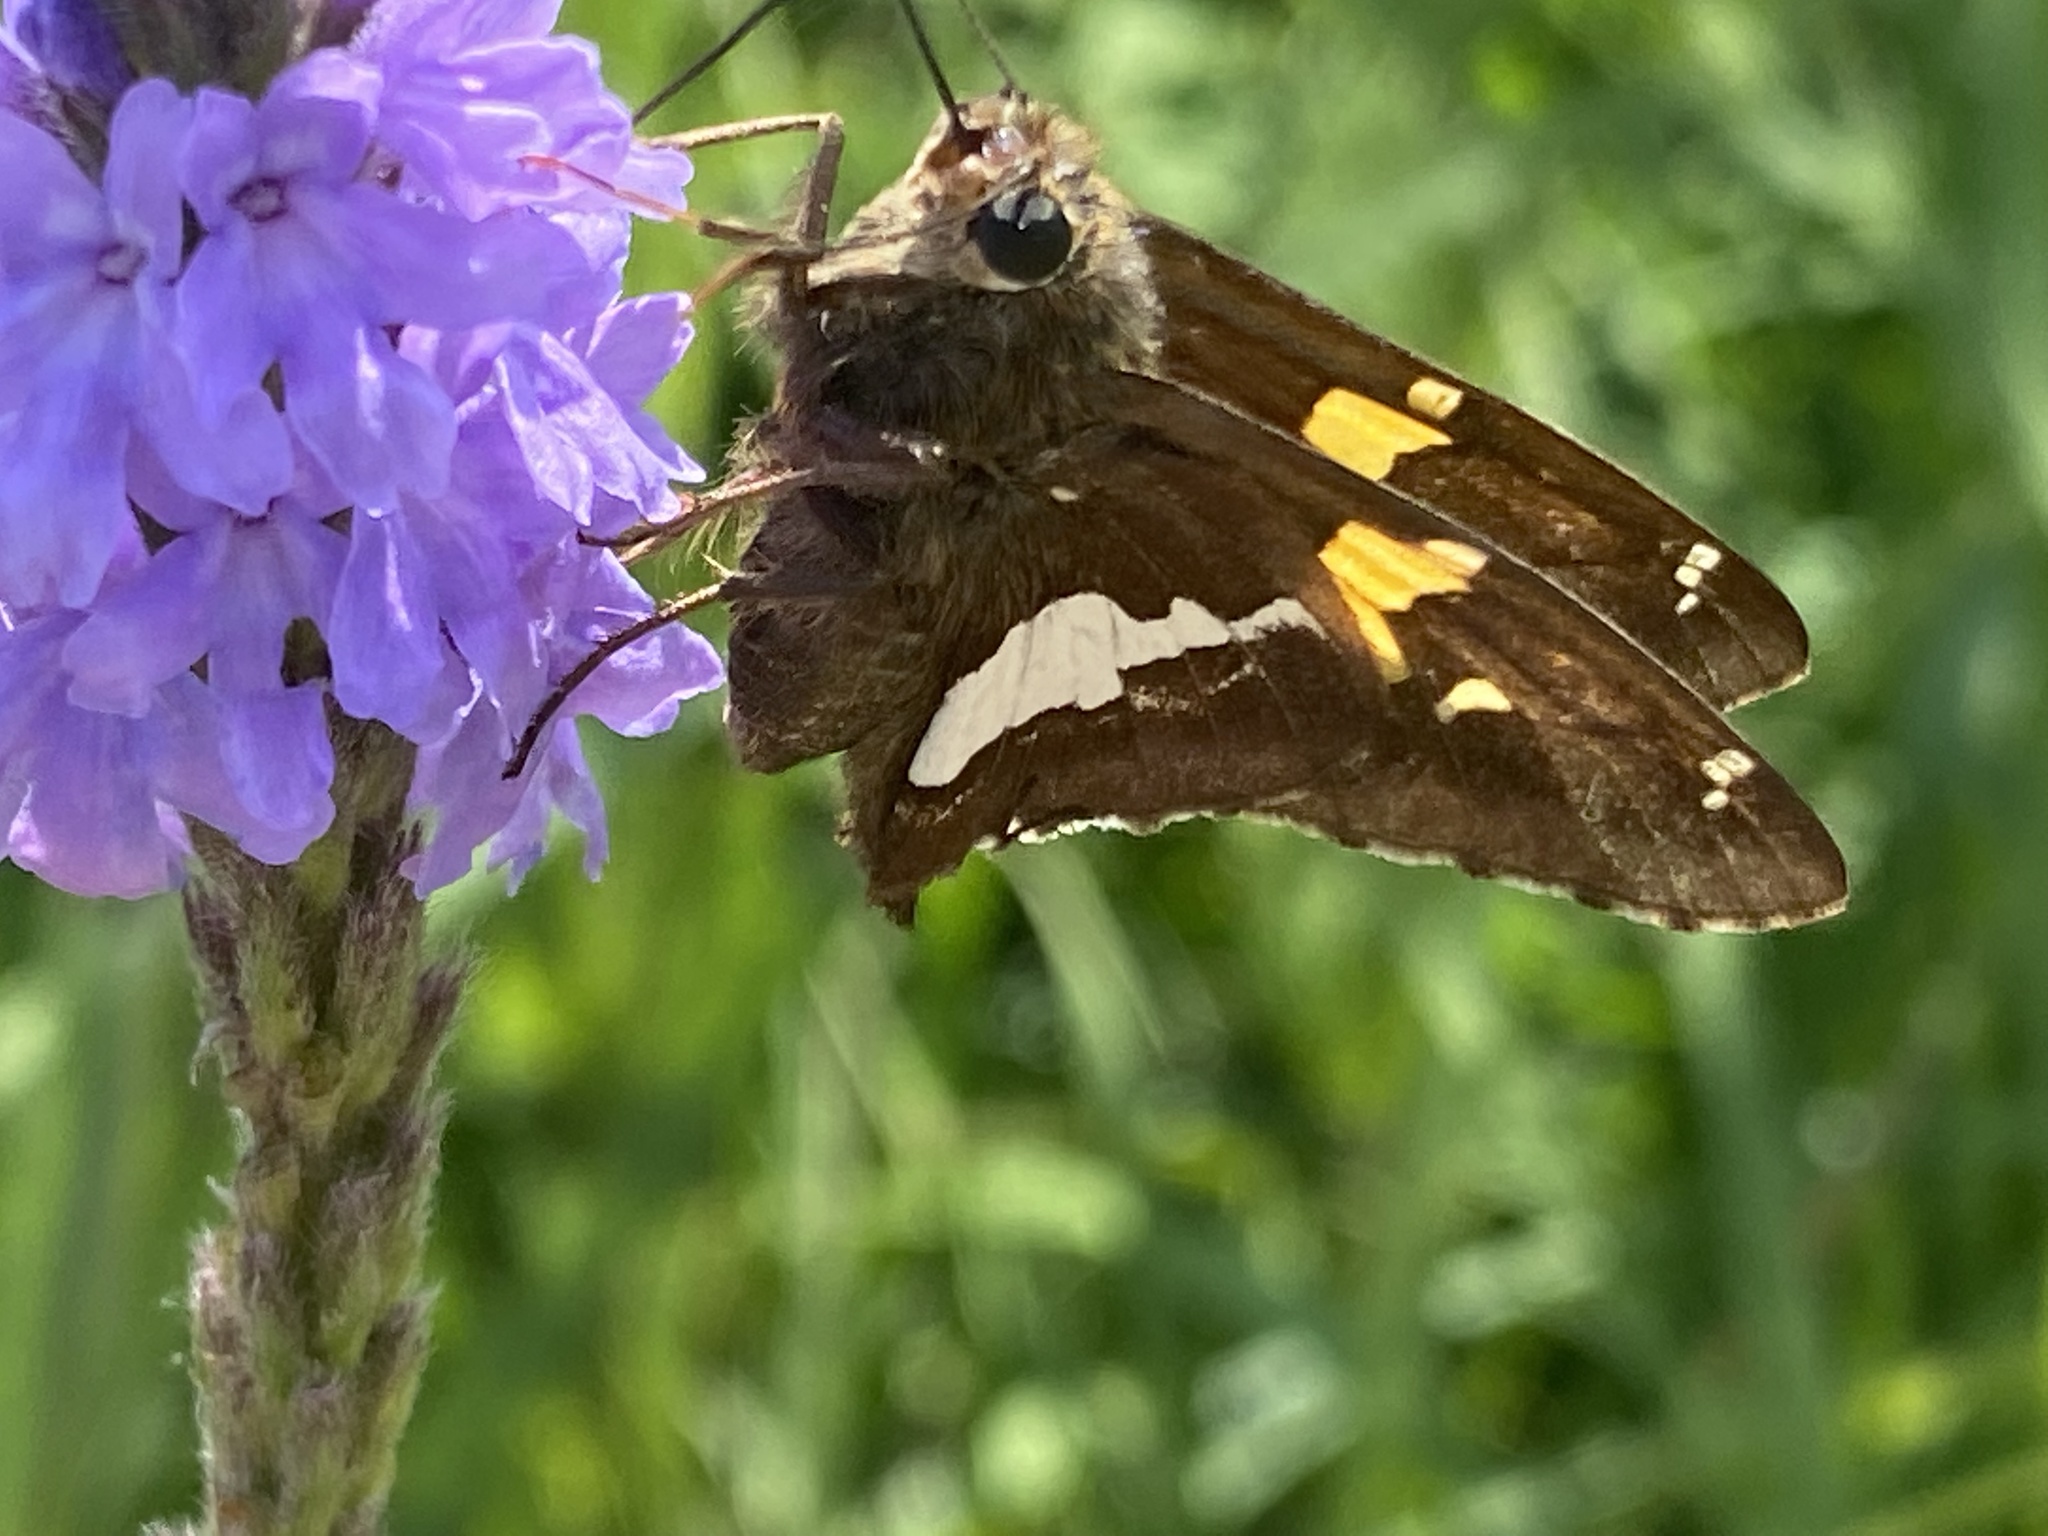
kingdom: Animalia
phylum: Arthropoda
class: Insecta
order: Lepidoptera
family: Hesperiidae
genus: Epargyreus
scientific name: Epargyreus clarus
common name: Silver-spotted skipper
